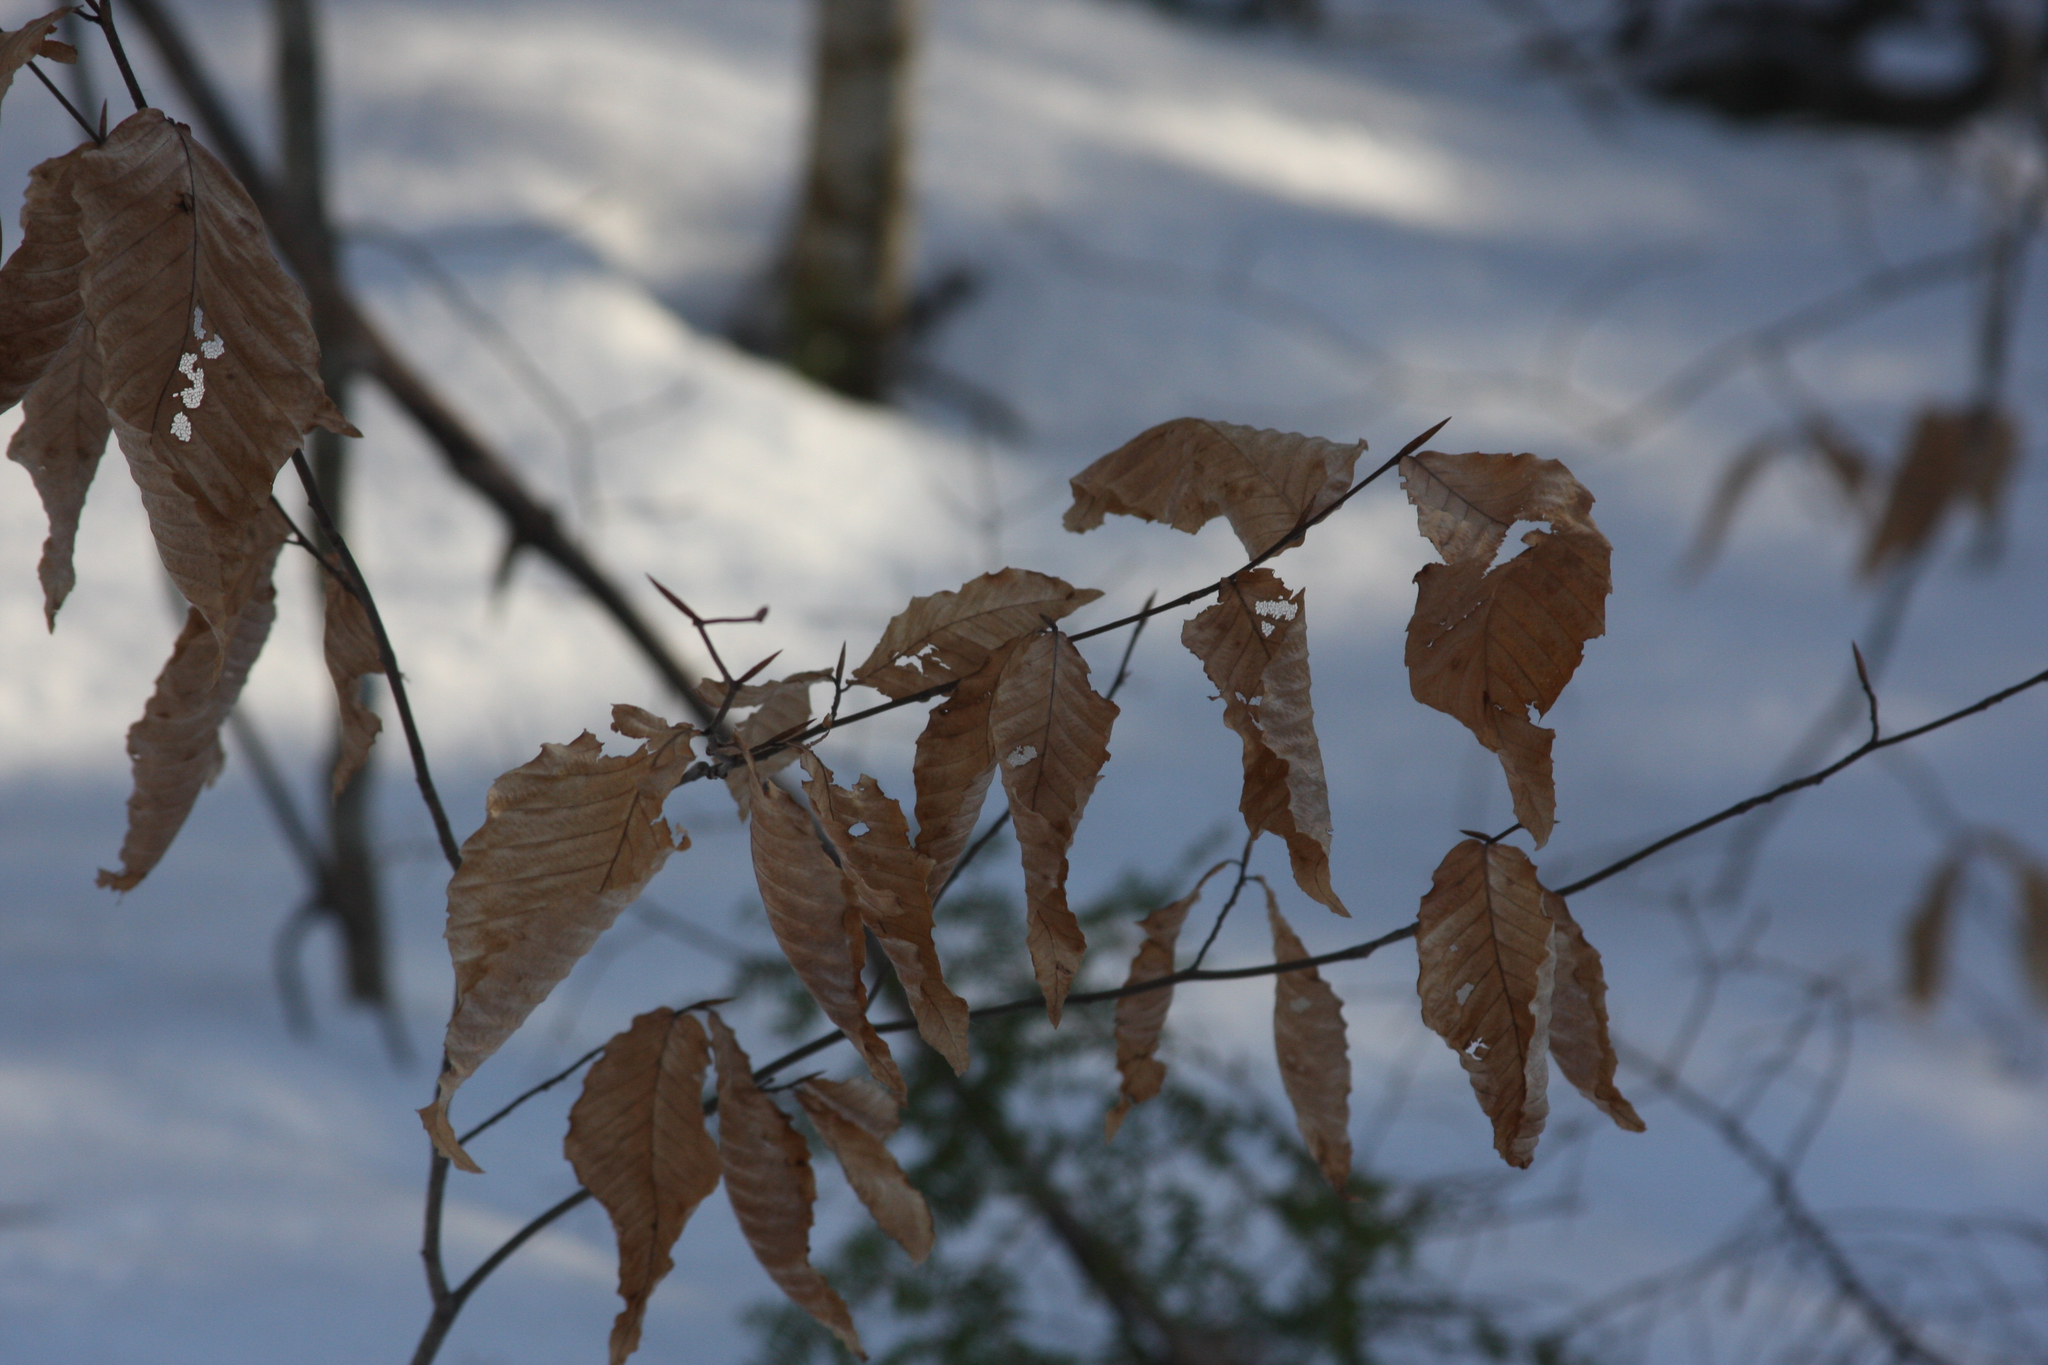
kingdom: Plantae
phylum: Tracheophyta
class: Magnoliopsida
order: Fagales
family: Fagaceae
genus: Fagus
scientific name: Fagus grandifolia
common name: American beech
